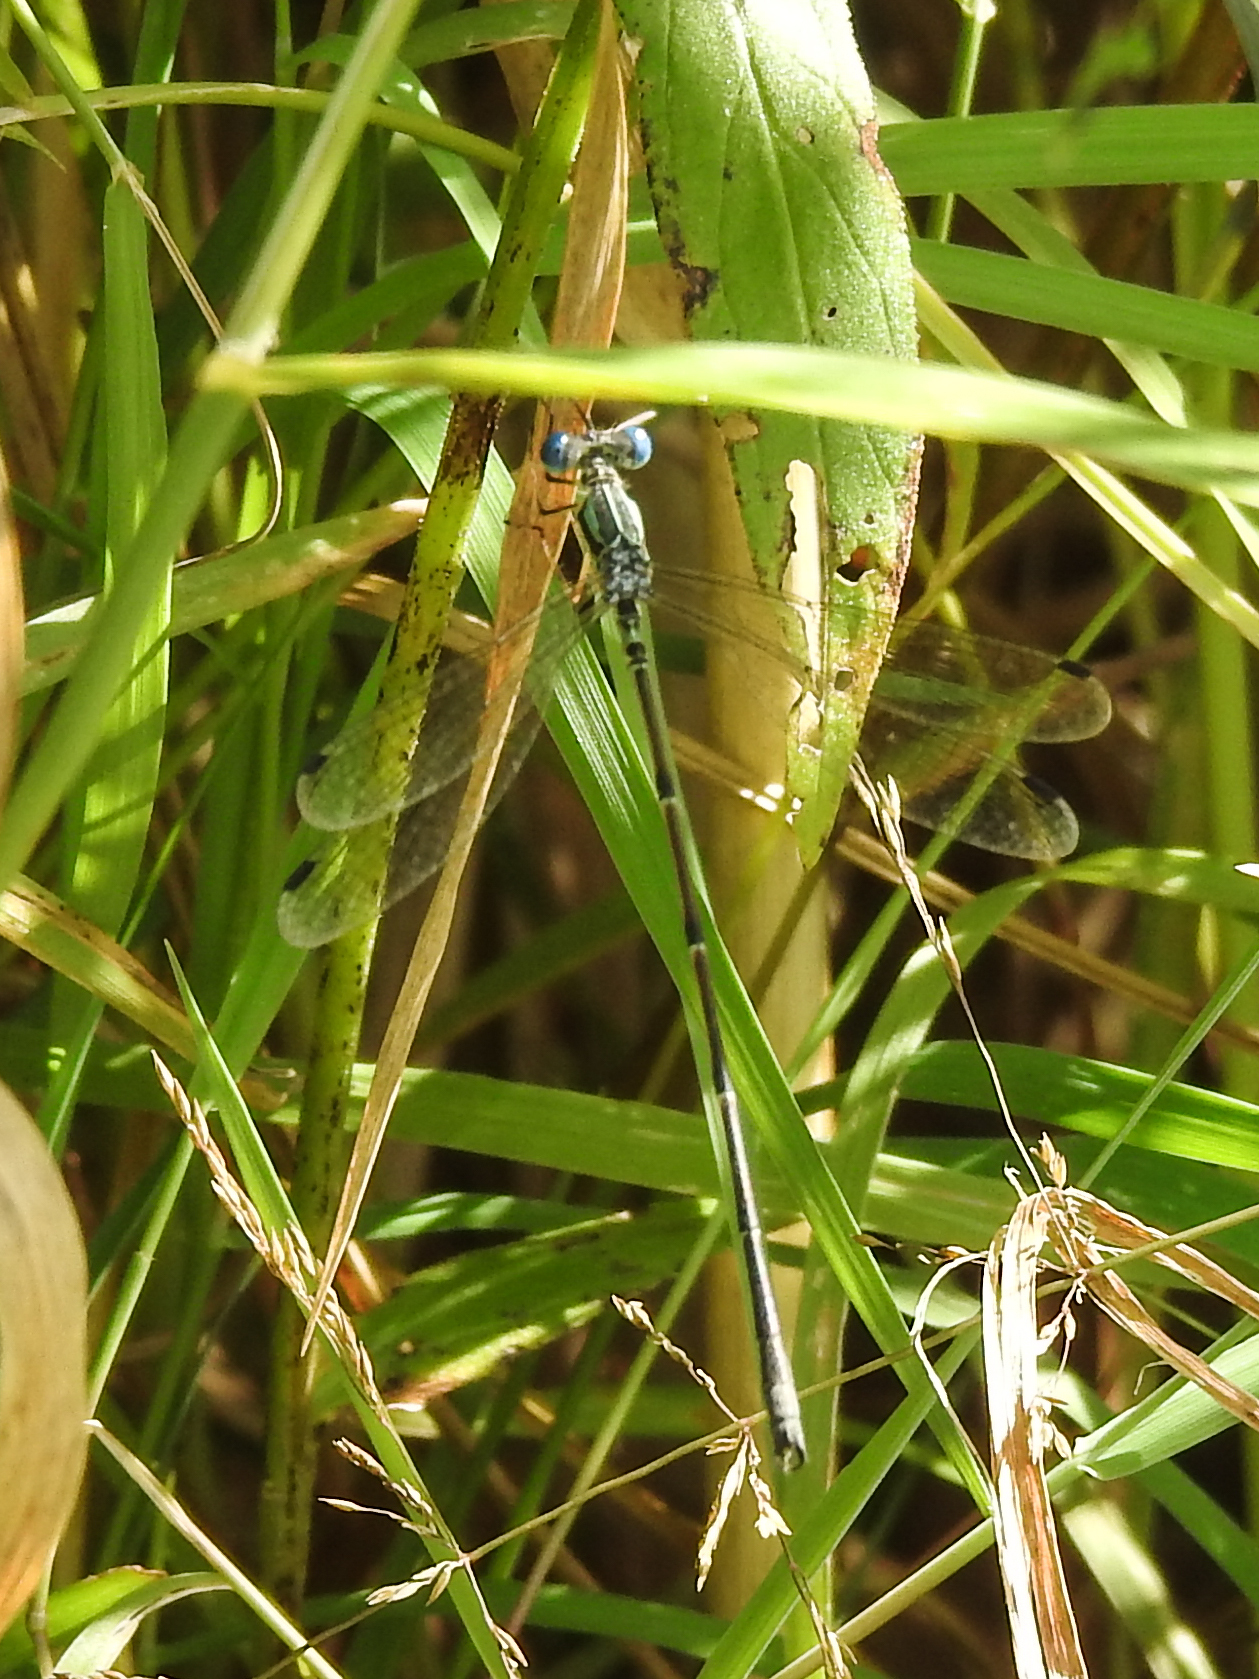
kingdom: Animalia
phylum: Arthropoda
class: Insecta
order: Odonata
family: Lestidae
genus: Lestes
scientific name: Lestes rectangularis
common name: Slender spreadwing
